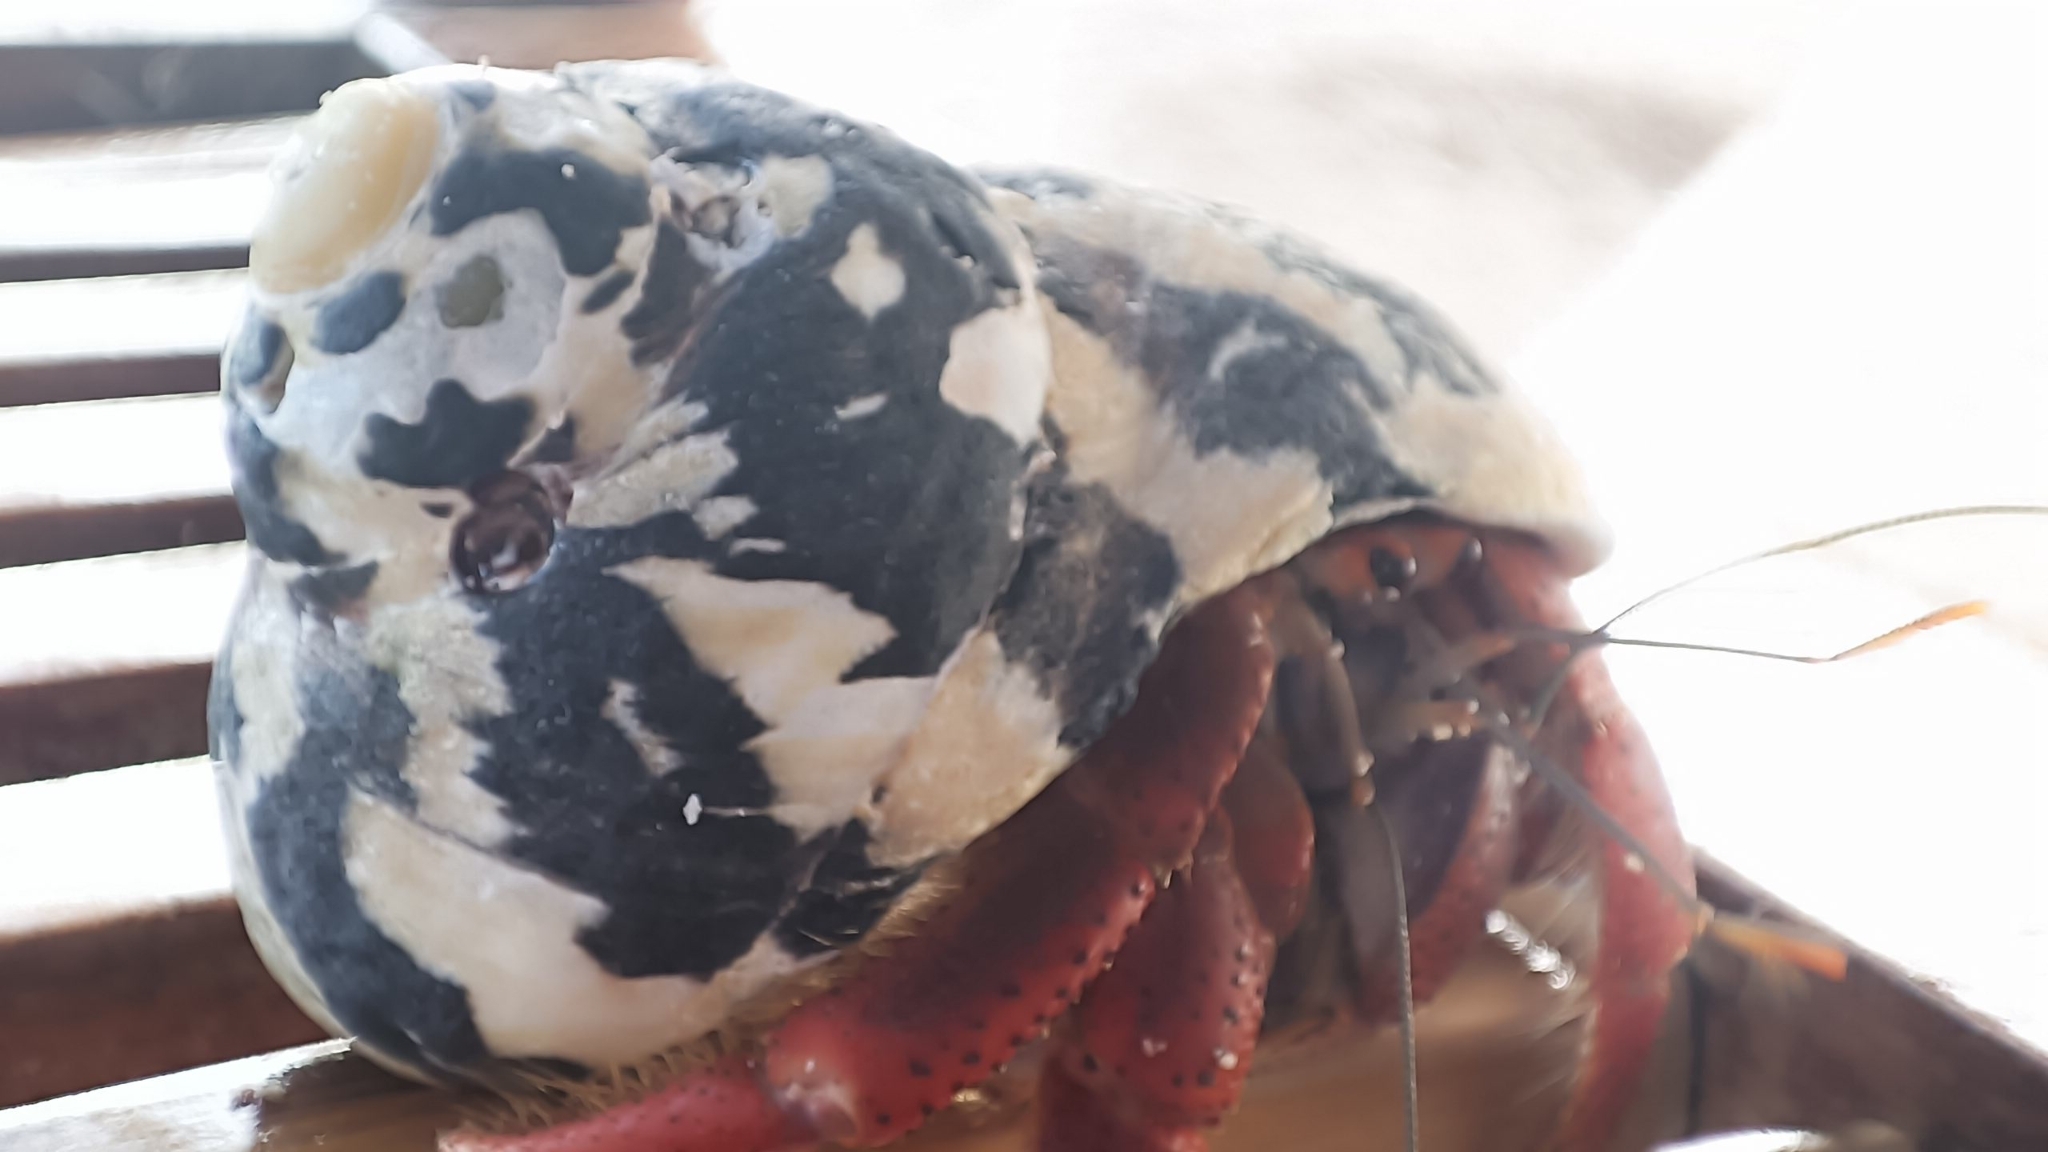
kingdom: Animalia
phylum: Arthropoda
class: Malacostraca
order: Decapoda
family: Coenobitidae
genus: Coenobita
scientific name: Coenobita clypeatus
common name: Caribbean hermit crab
